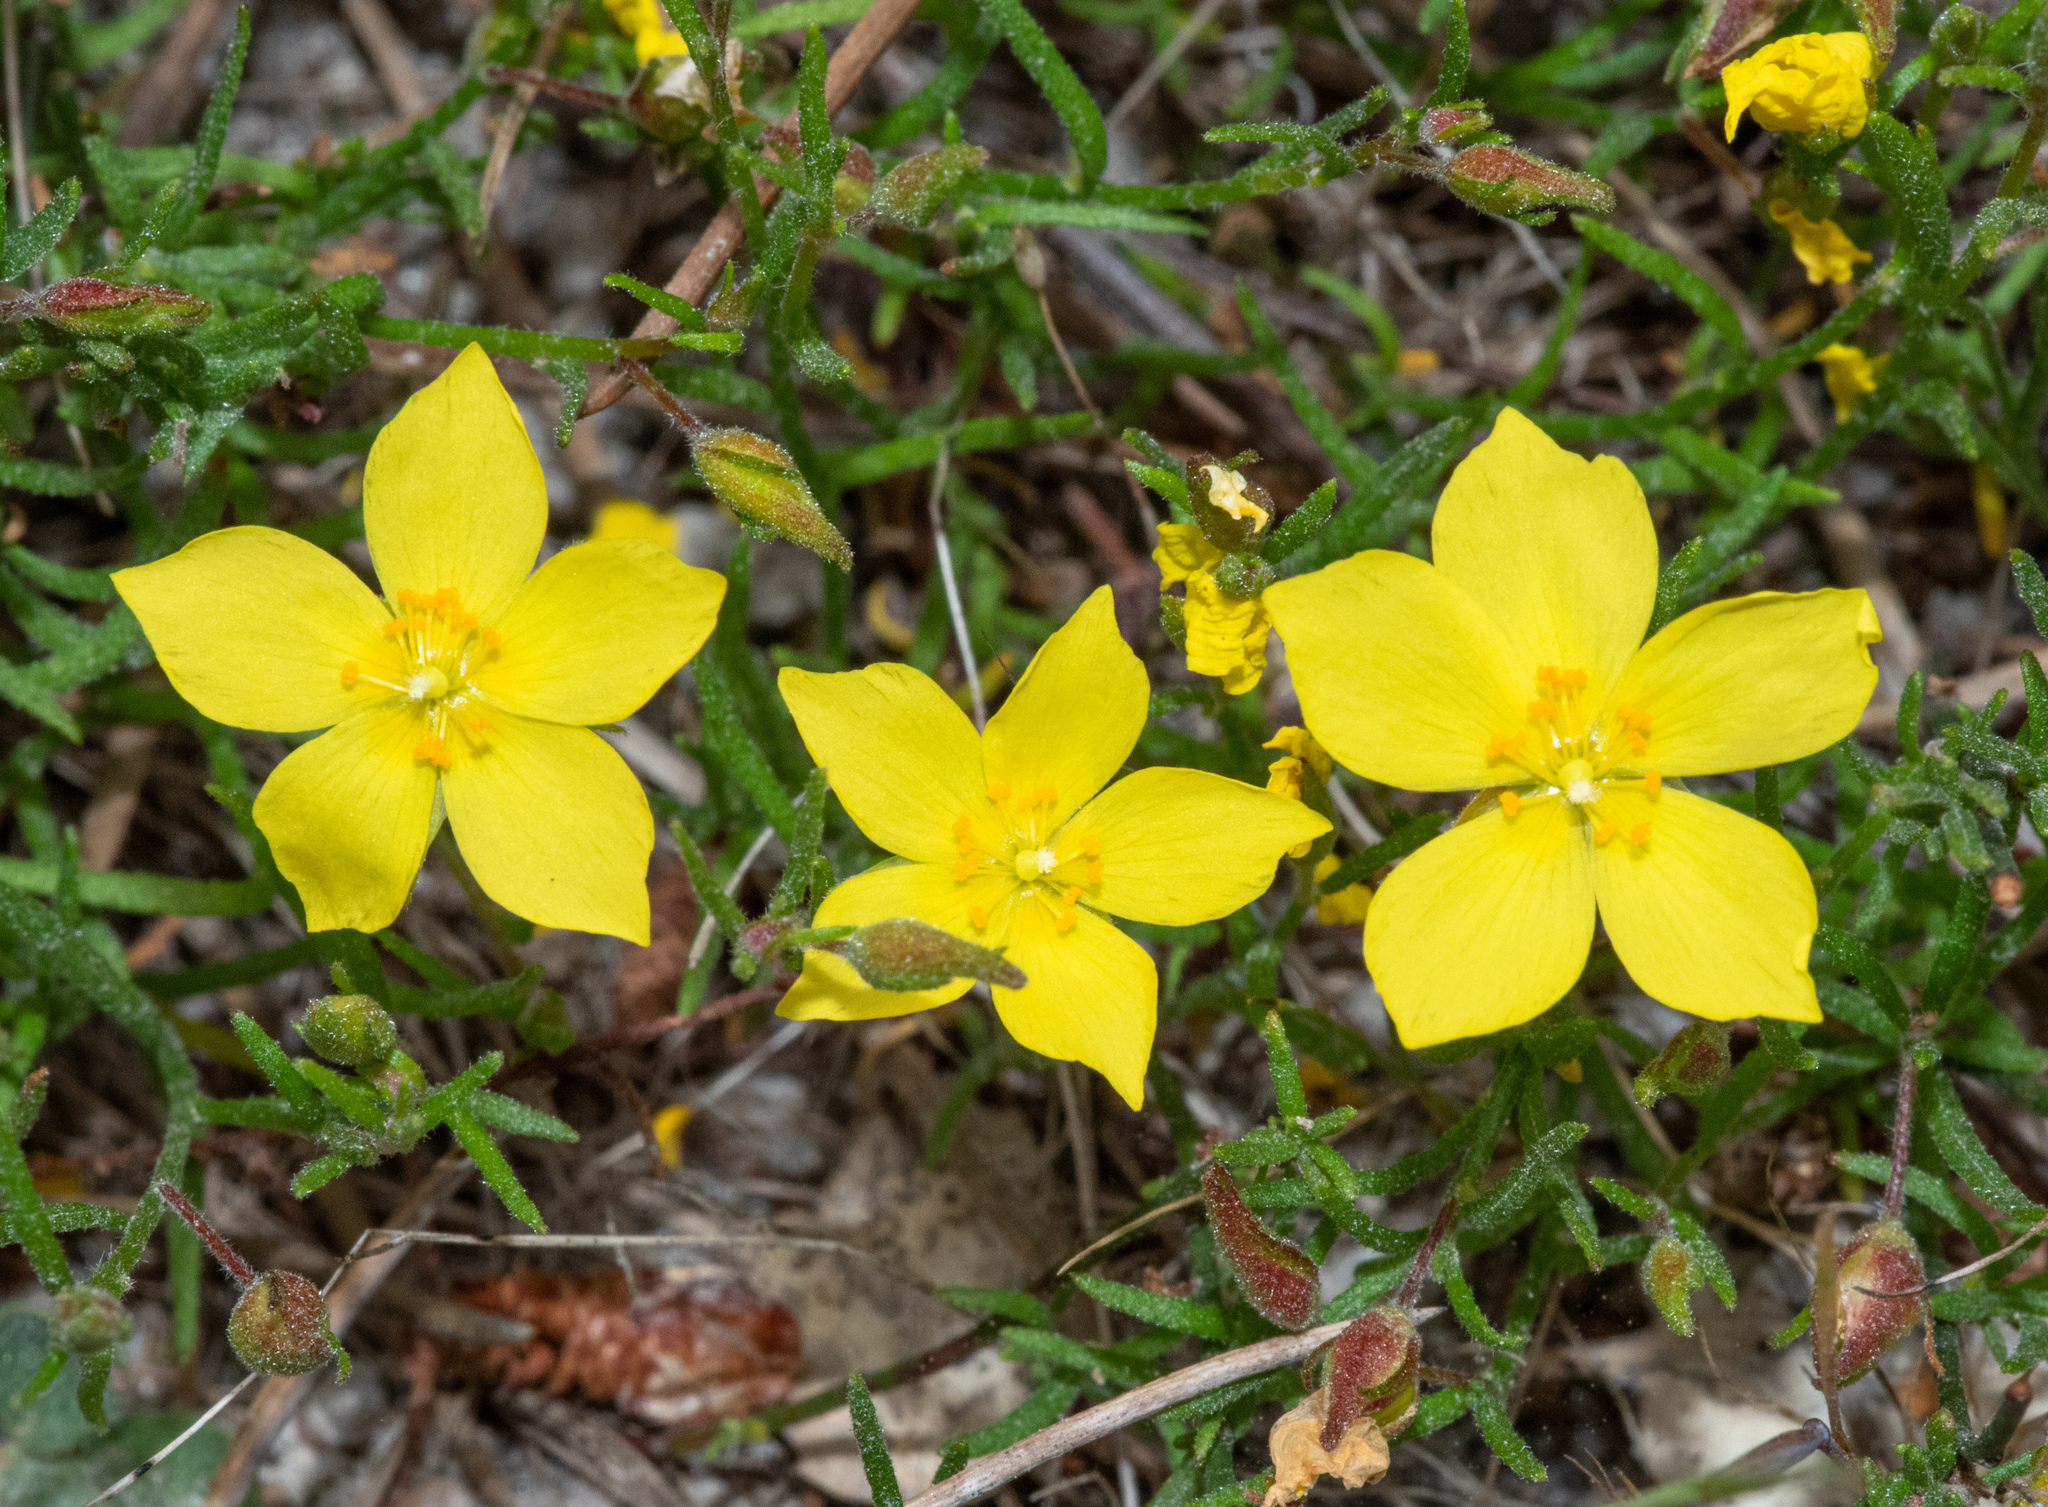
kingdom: Plantae
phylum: Tracheophyta
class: Magnoliopsida
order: Malvales
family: Cistaceae
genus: Crocanthemum
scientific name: Crocanthemum scoparium
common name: Broom-rose
